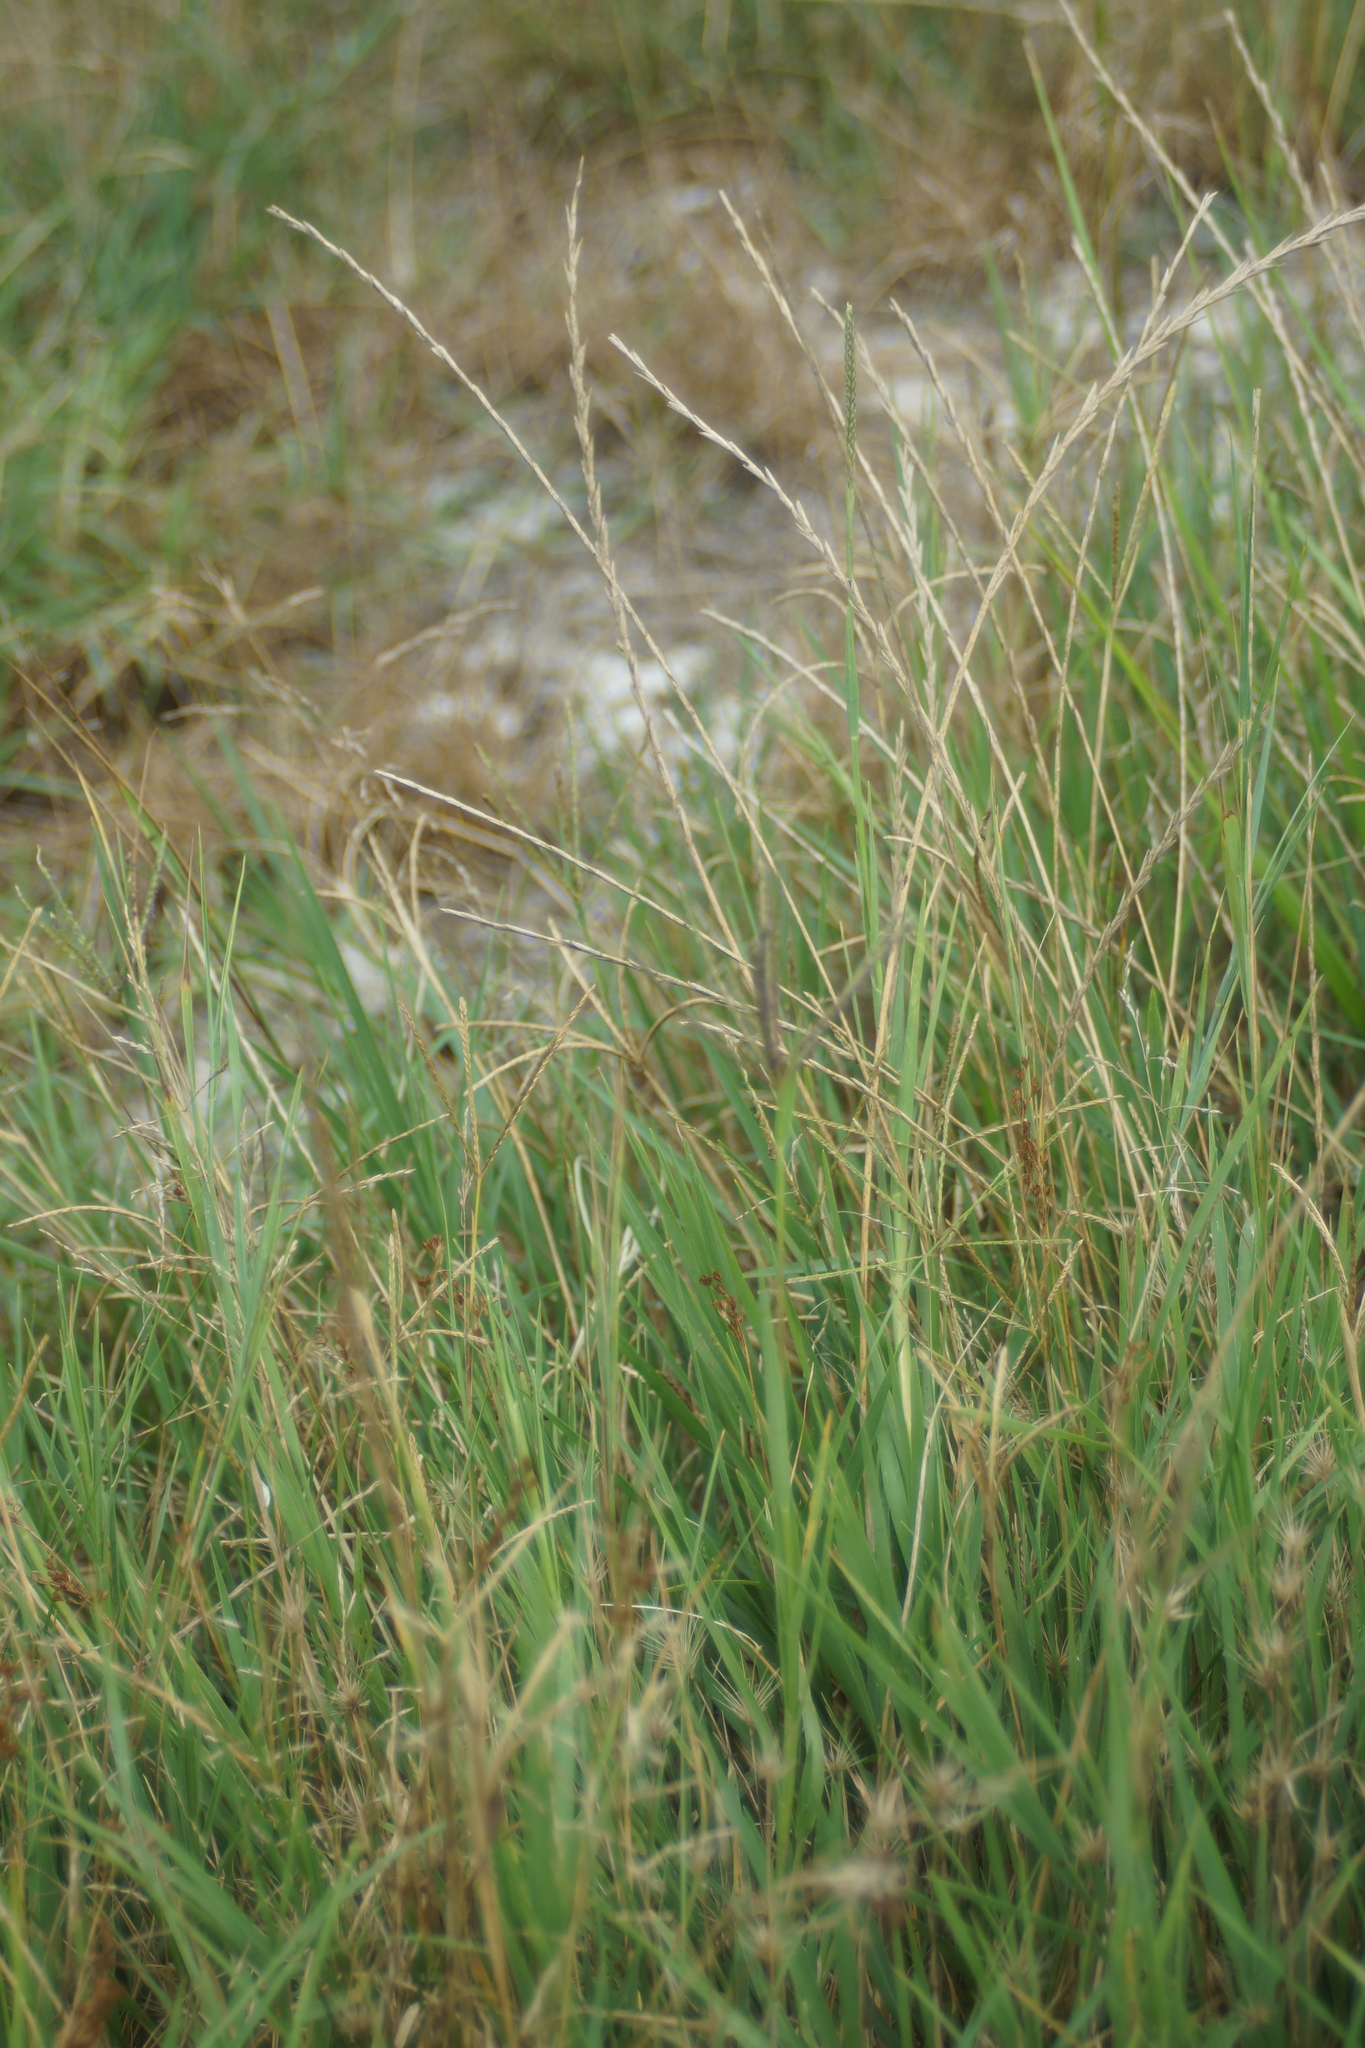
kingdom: Plantae
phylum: Tracheophyta
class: Liliopsida
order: Poales
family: Poaceae
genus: Cynodon
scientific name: Cynodon dactylon
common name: Bermuda grass
